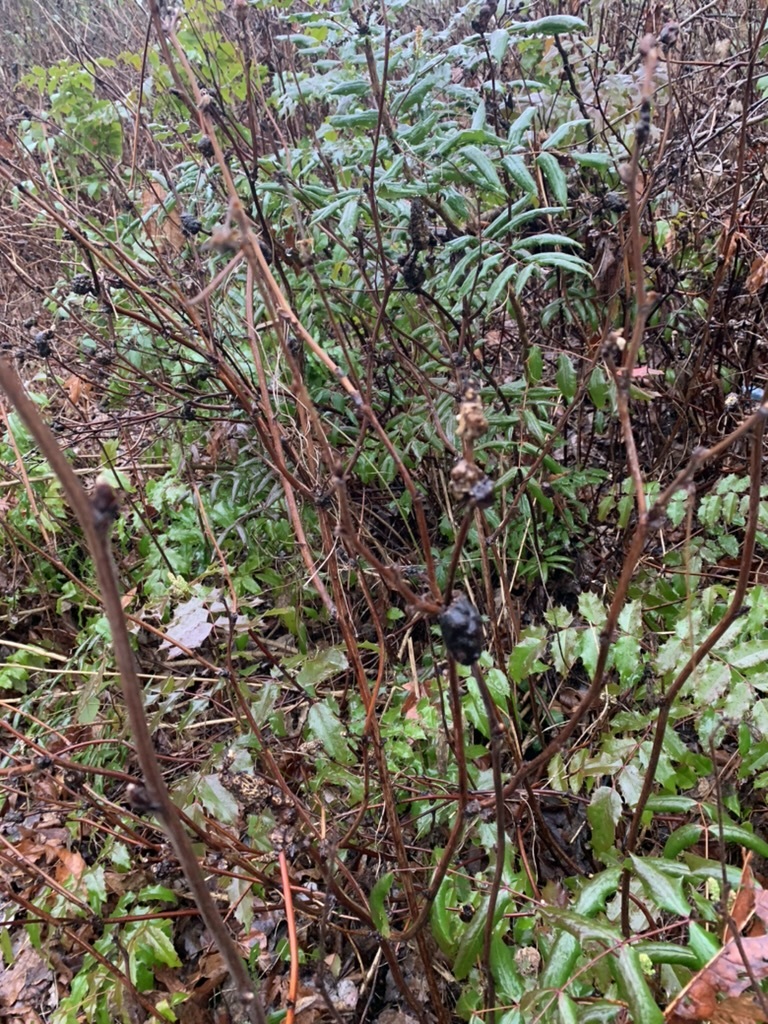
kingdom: Animalia
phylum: Arthropoda
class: Insecta
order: Hymenoptera
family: Cynipidae
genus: Diastrophus
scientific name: Diastrophus
